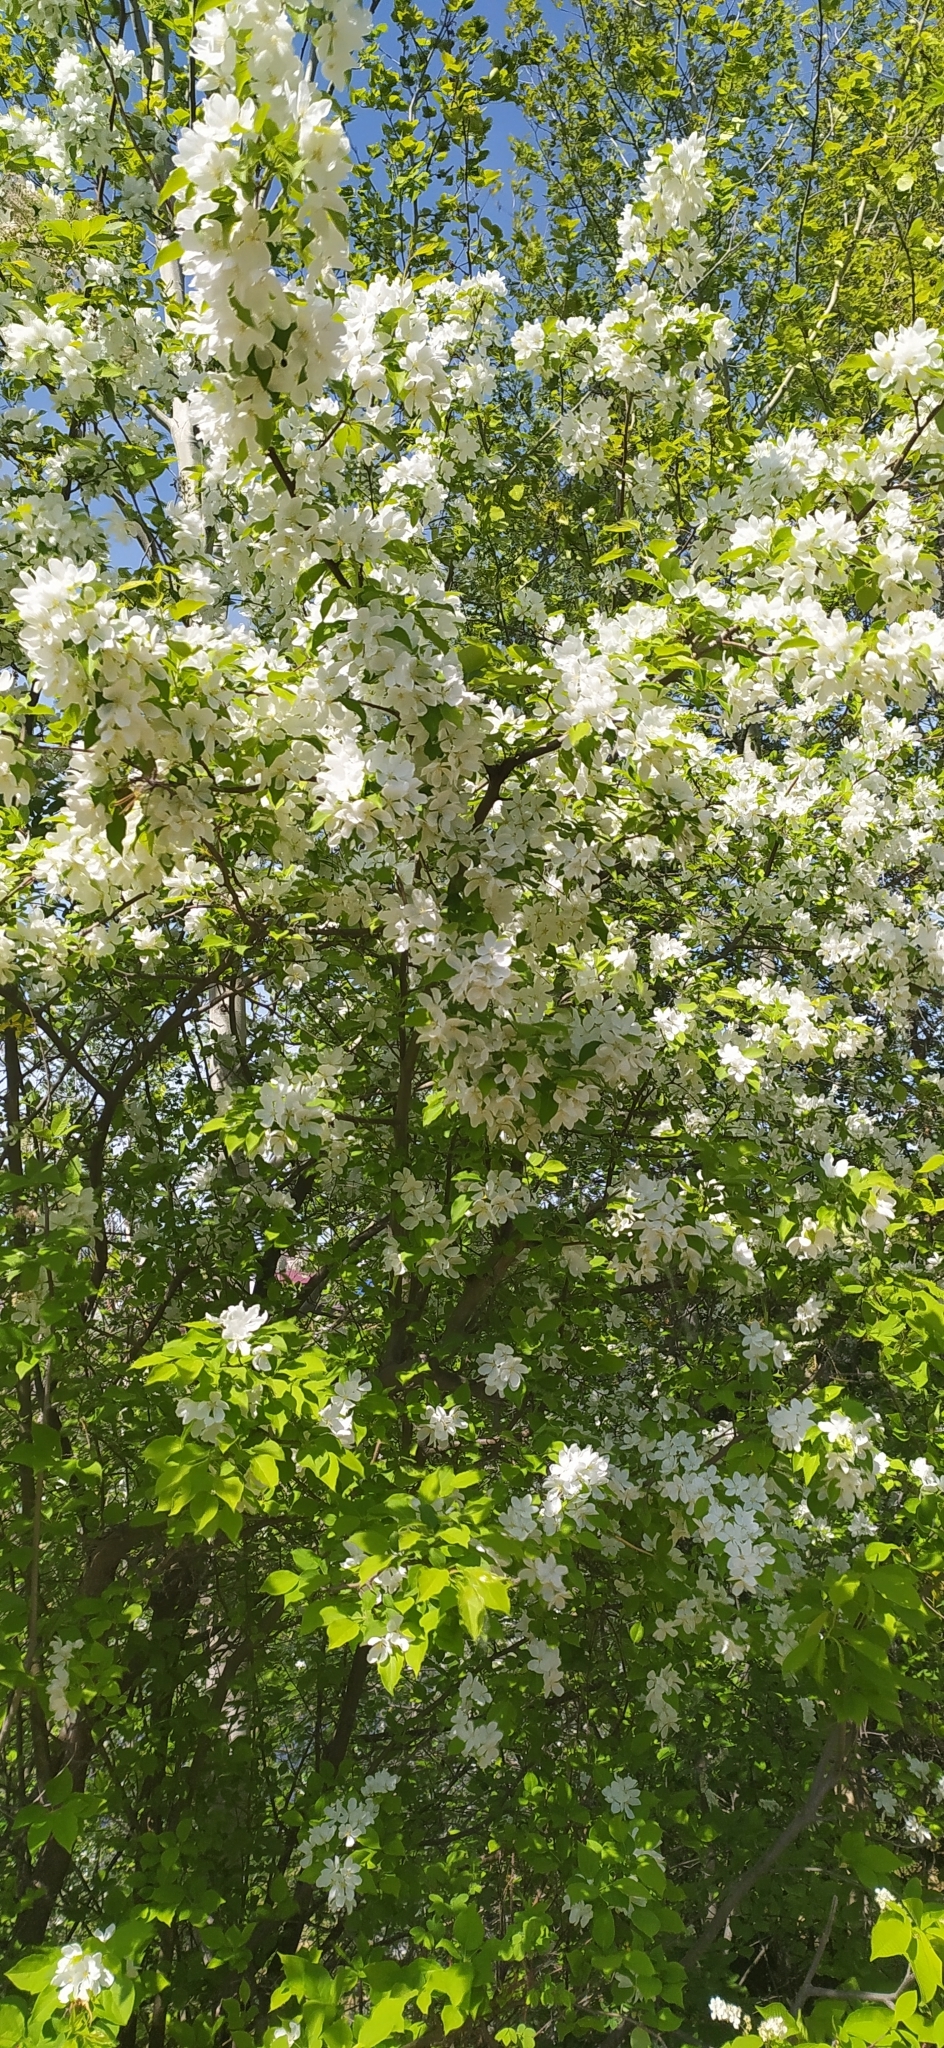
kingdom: Plantae
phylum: Tracheophyta
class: Magnoliopsida
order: Rosales
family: Rosaceae
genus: Malus
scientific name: Malus baccata
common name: Siberian crab
